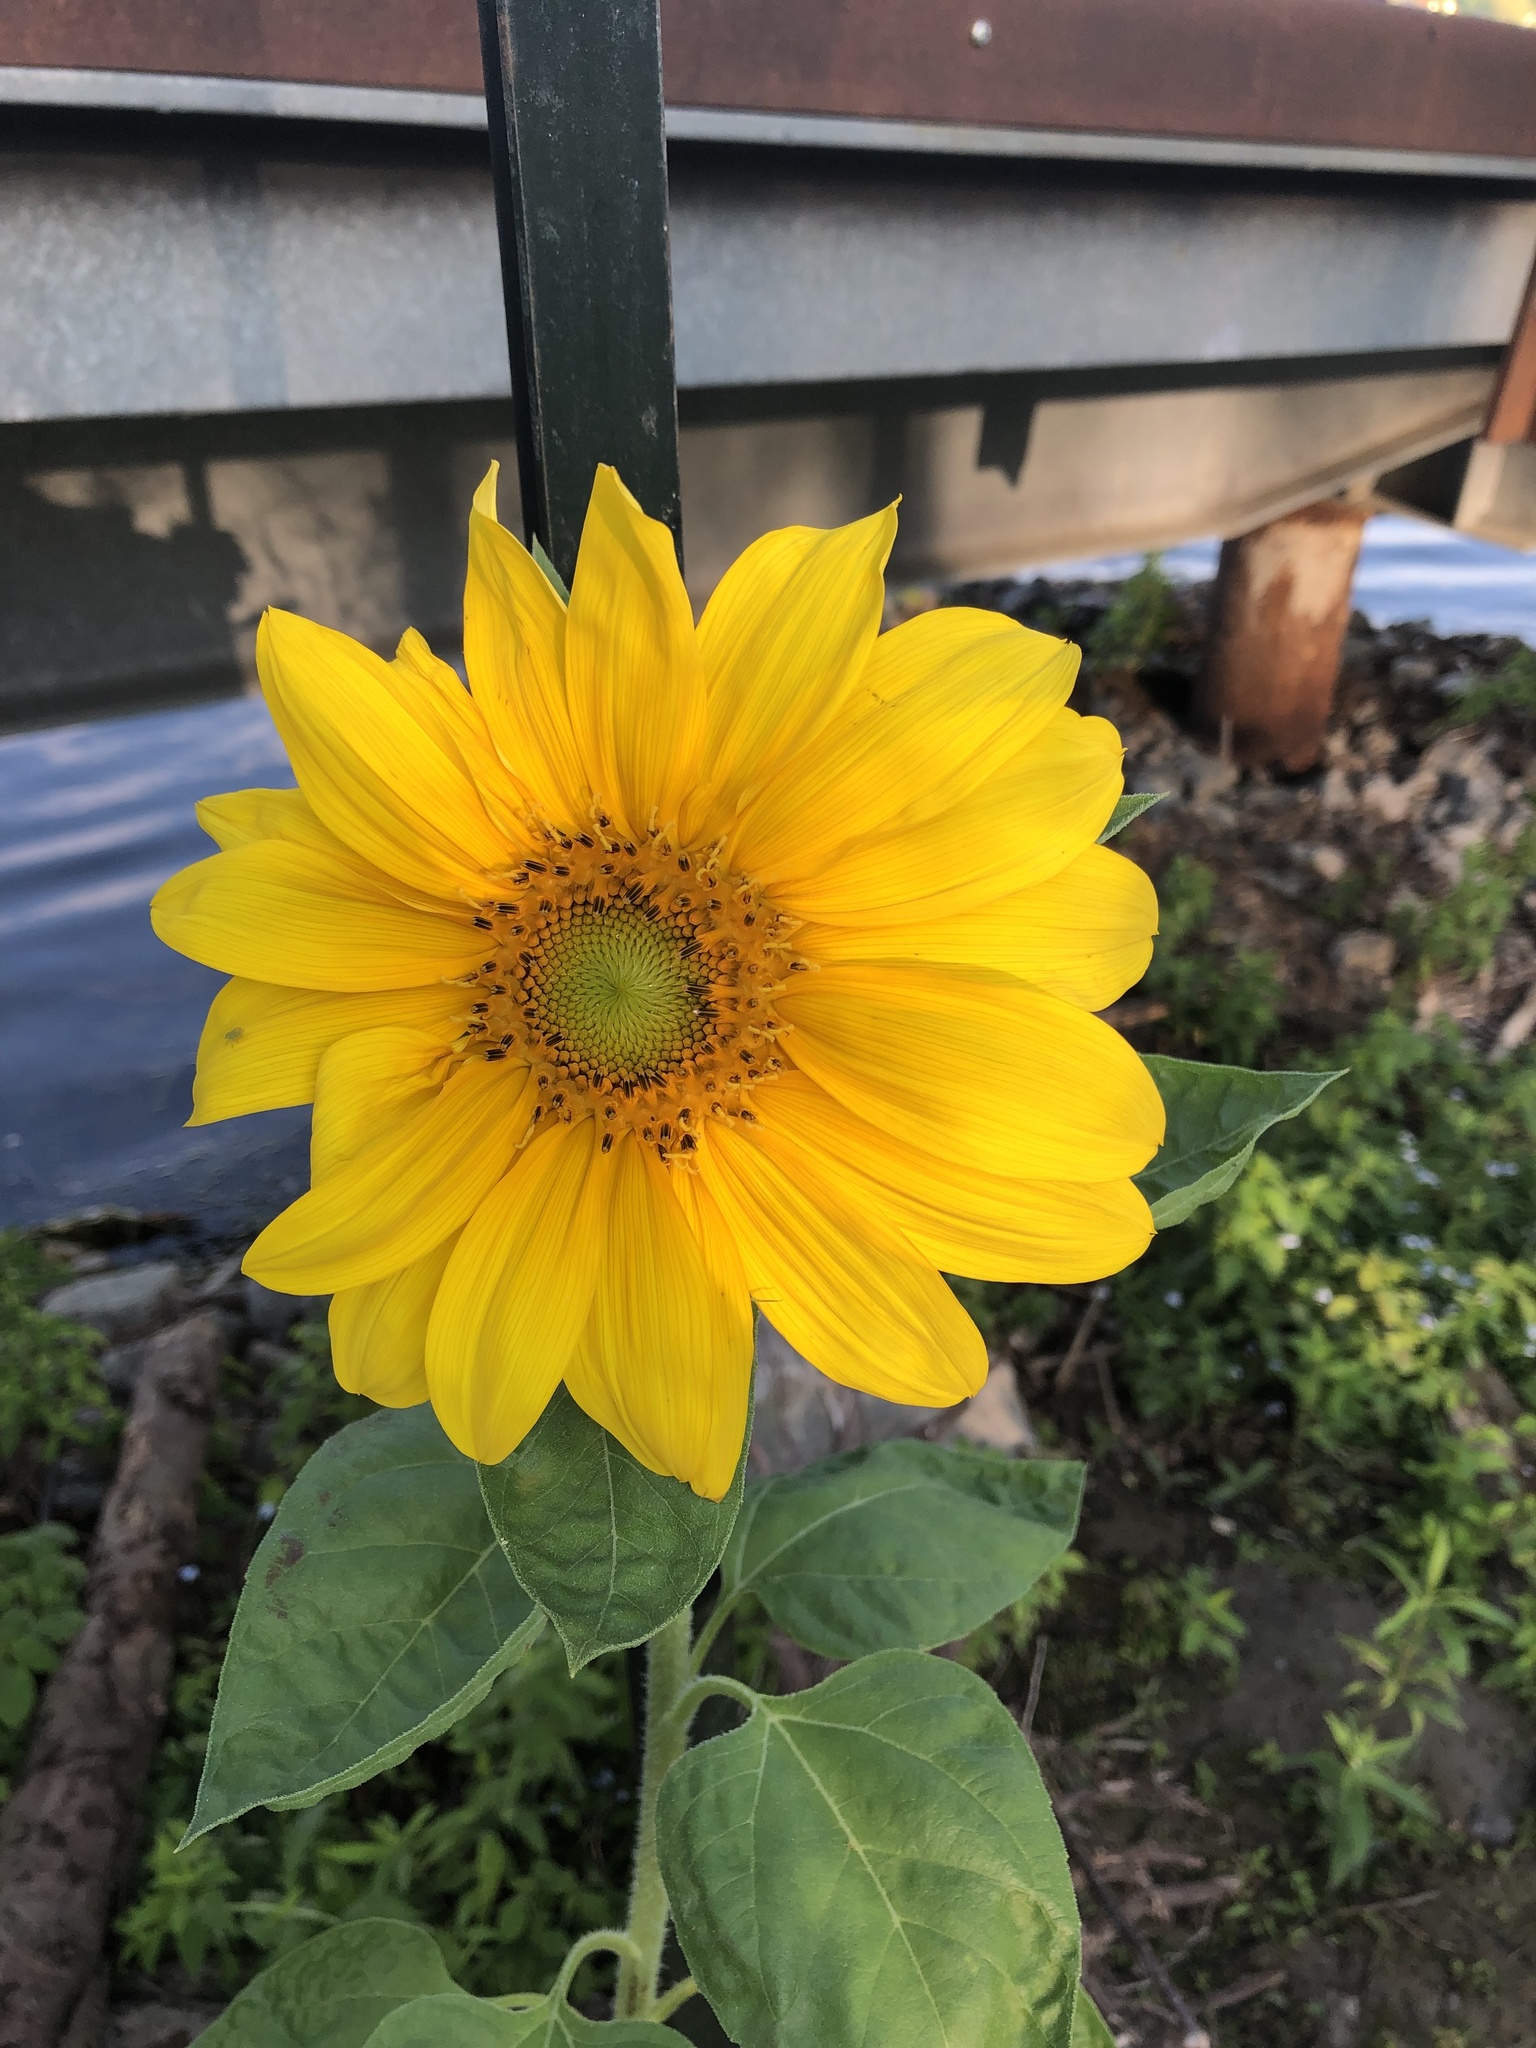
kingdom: Plantae
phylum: Tracheophyta
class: Magnoliopsida
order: Asterales
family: Asteraceae
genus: Helianthus
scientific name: Helianthus annuus
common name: Sunflower
